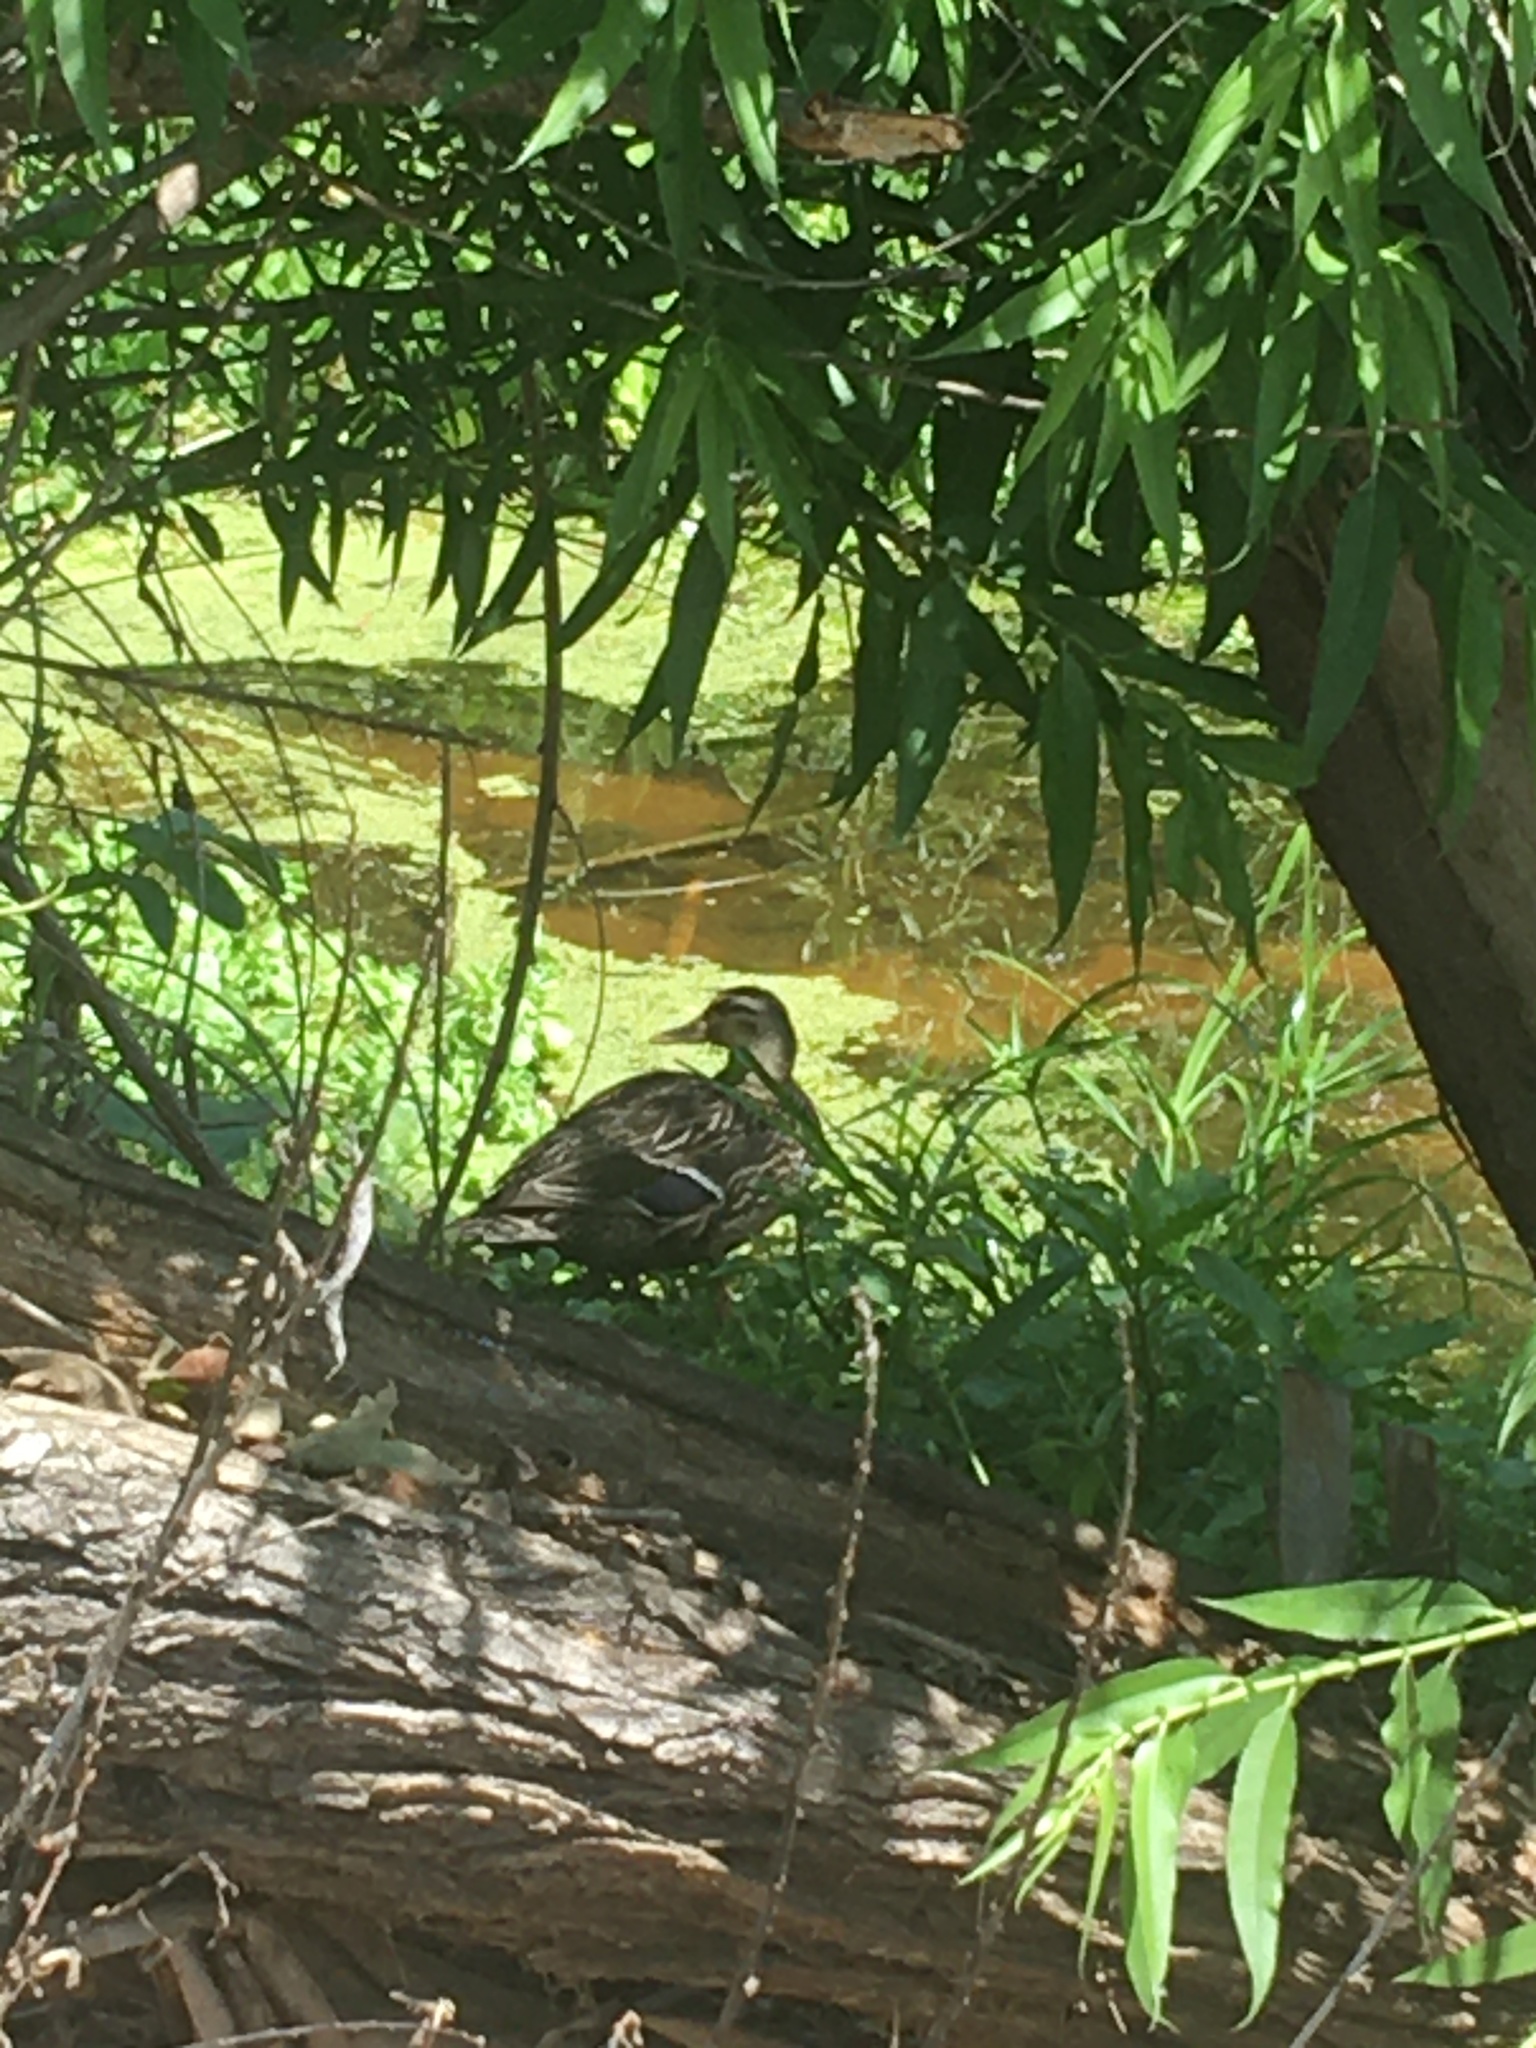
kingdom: Animalia
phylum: Chordata
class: Aves
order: Anseriformes
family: Anatidae
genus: Anas
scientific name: Anas platyrhynchos
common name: Mallard
